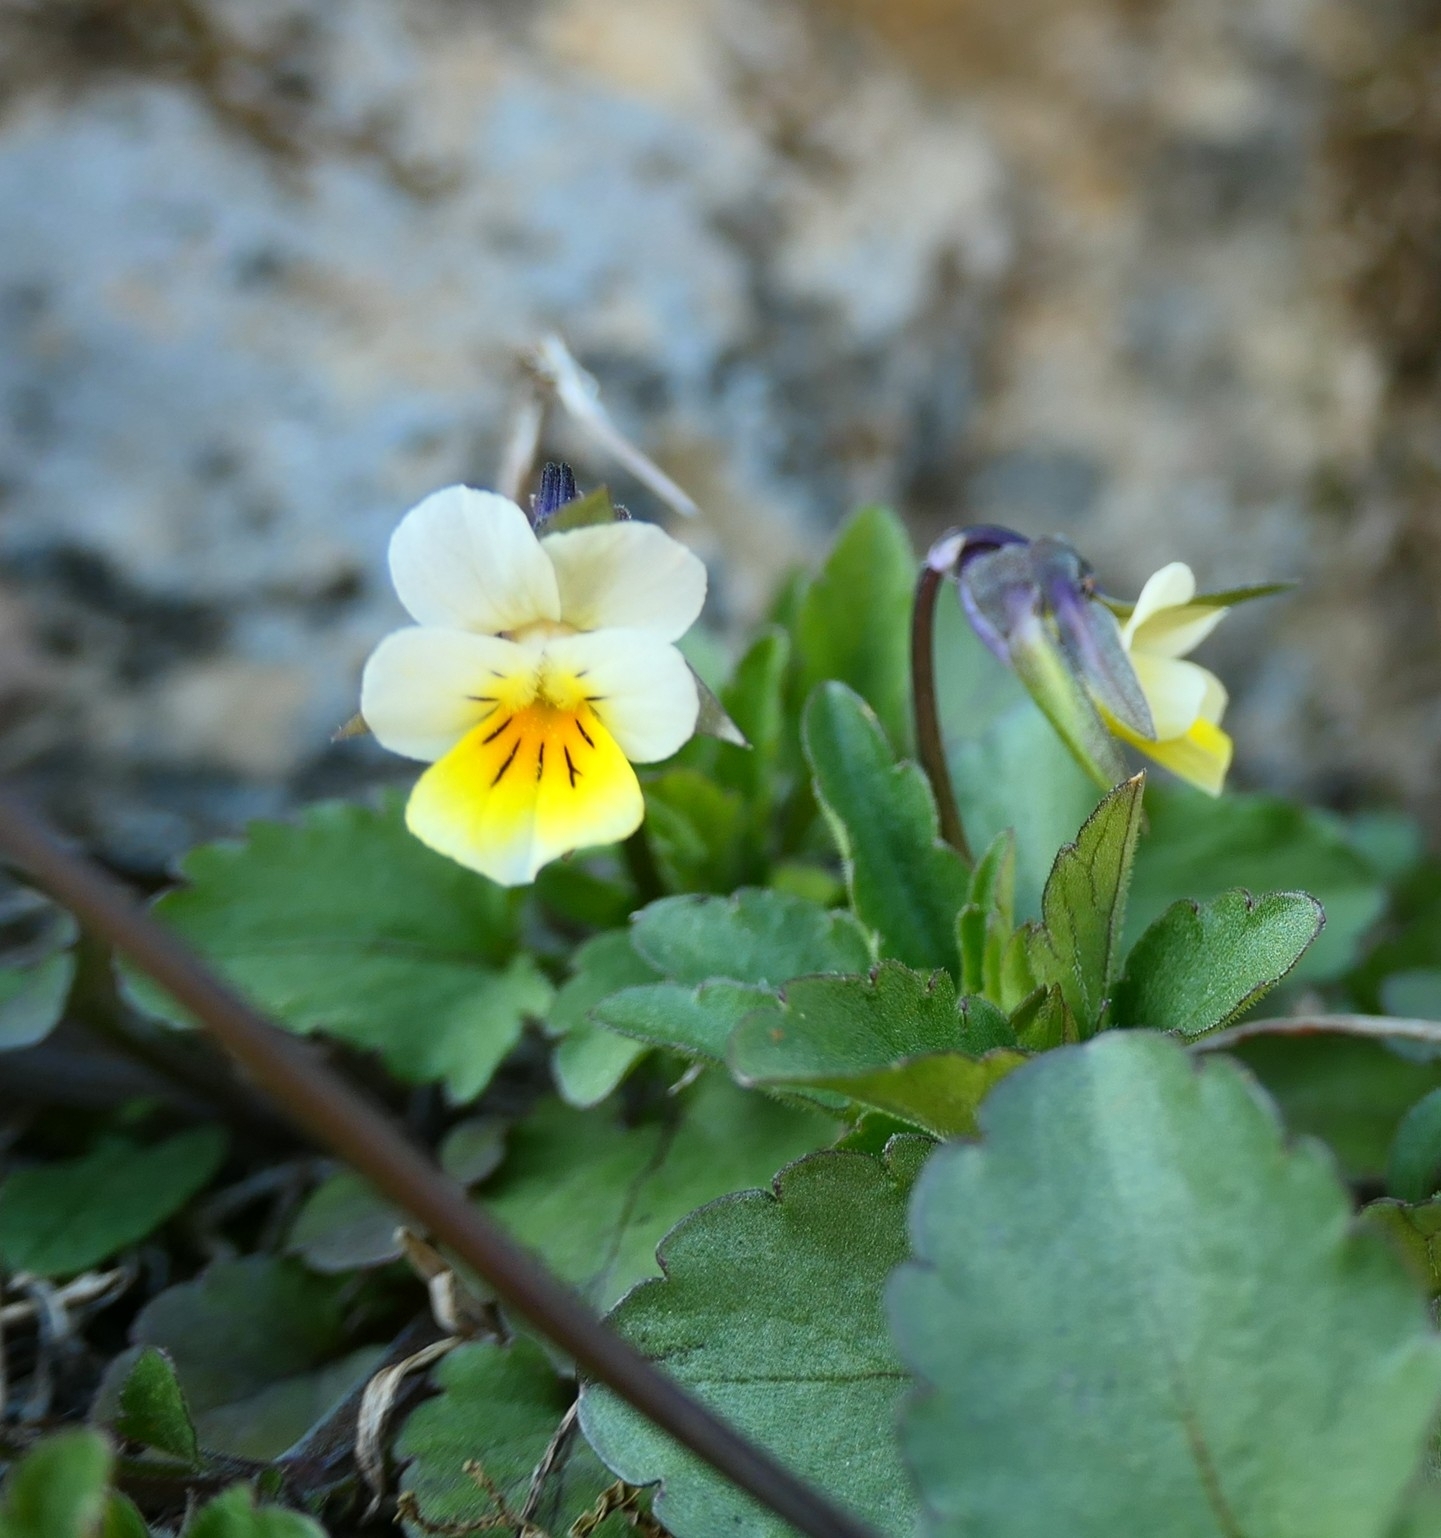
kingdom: Plantae
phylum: Tracheophyta
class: Magnoliopsida
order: Malpighiales
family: Violaceae
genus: Viola
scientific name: Viola arvensis
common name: Field pansy
